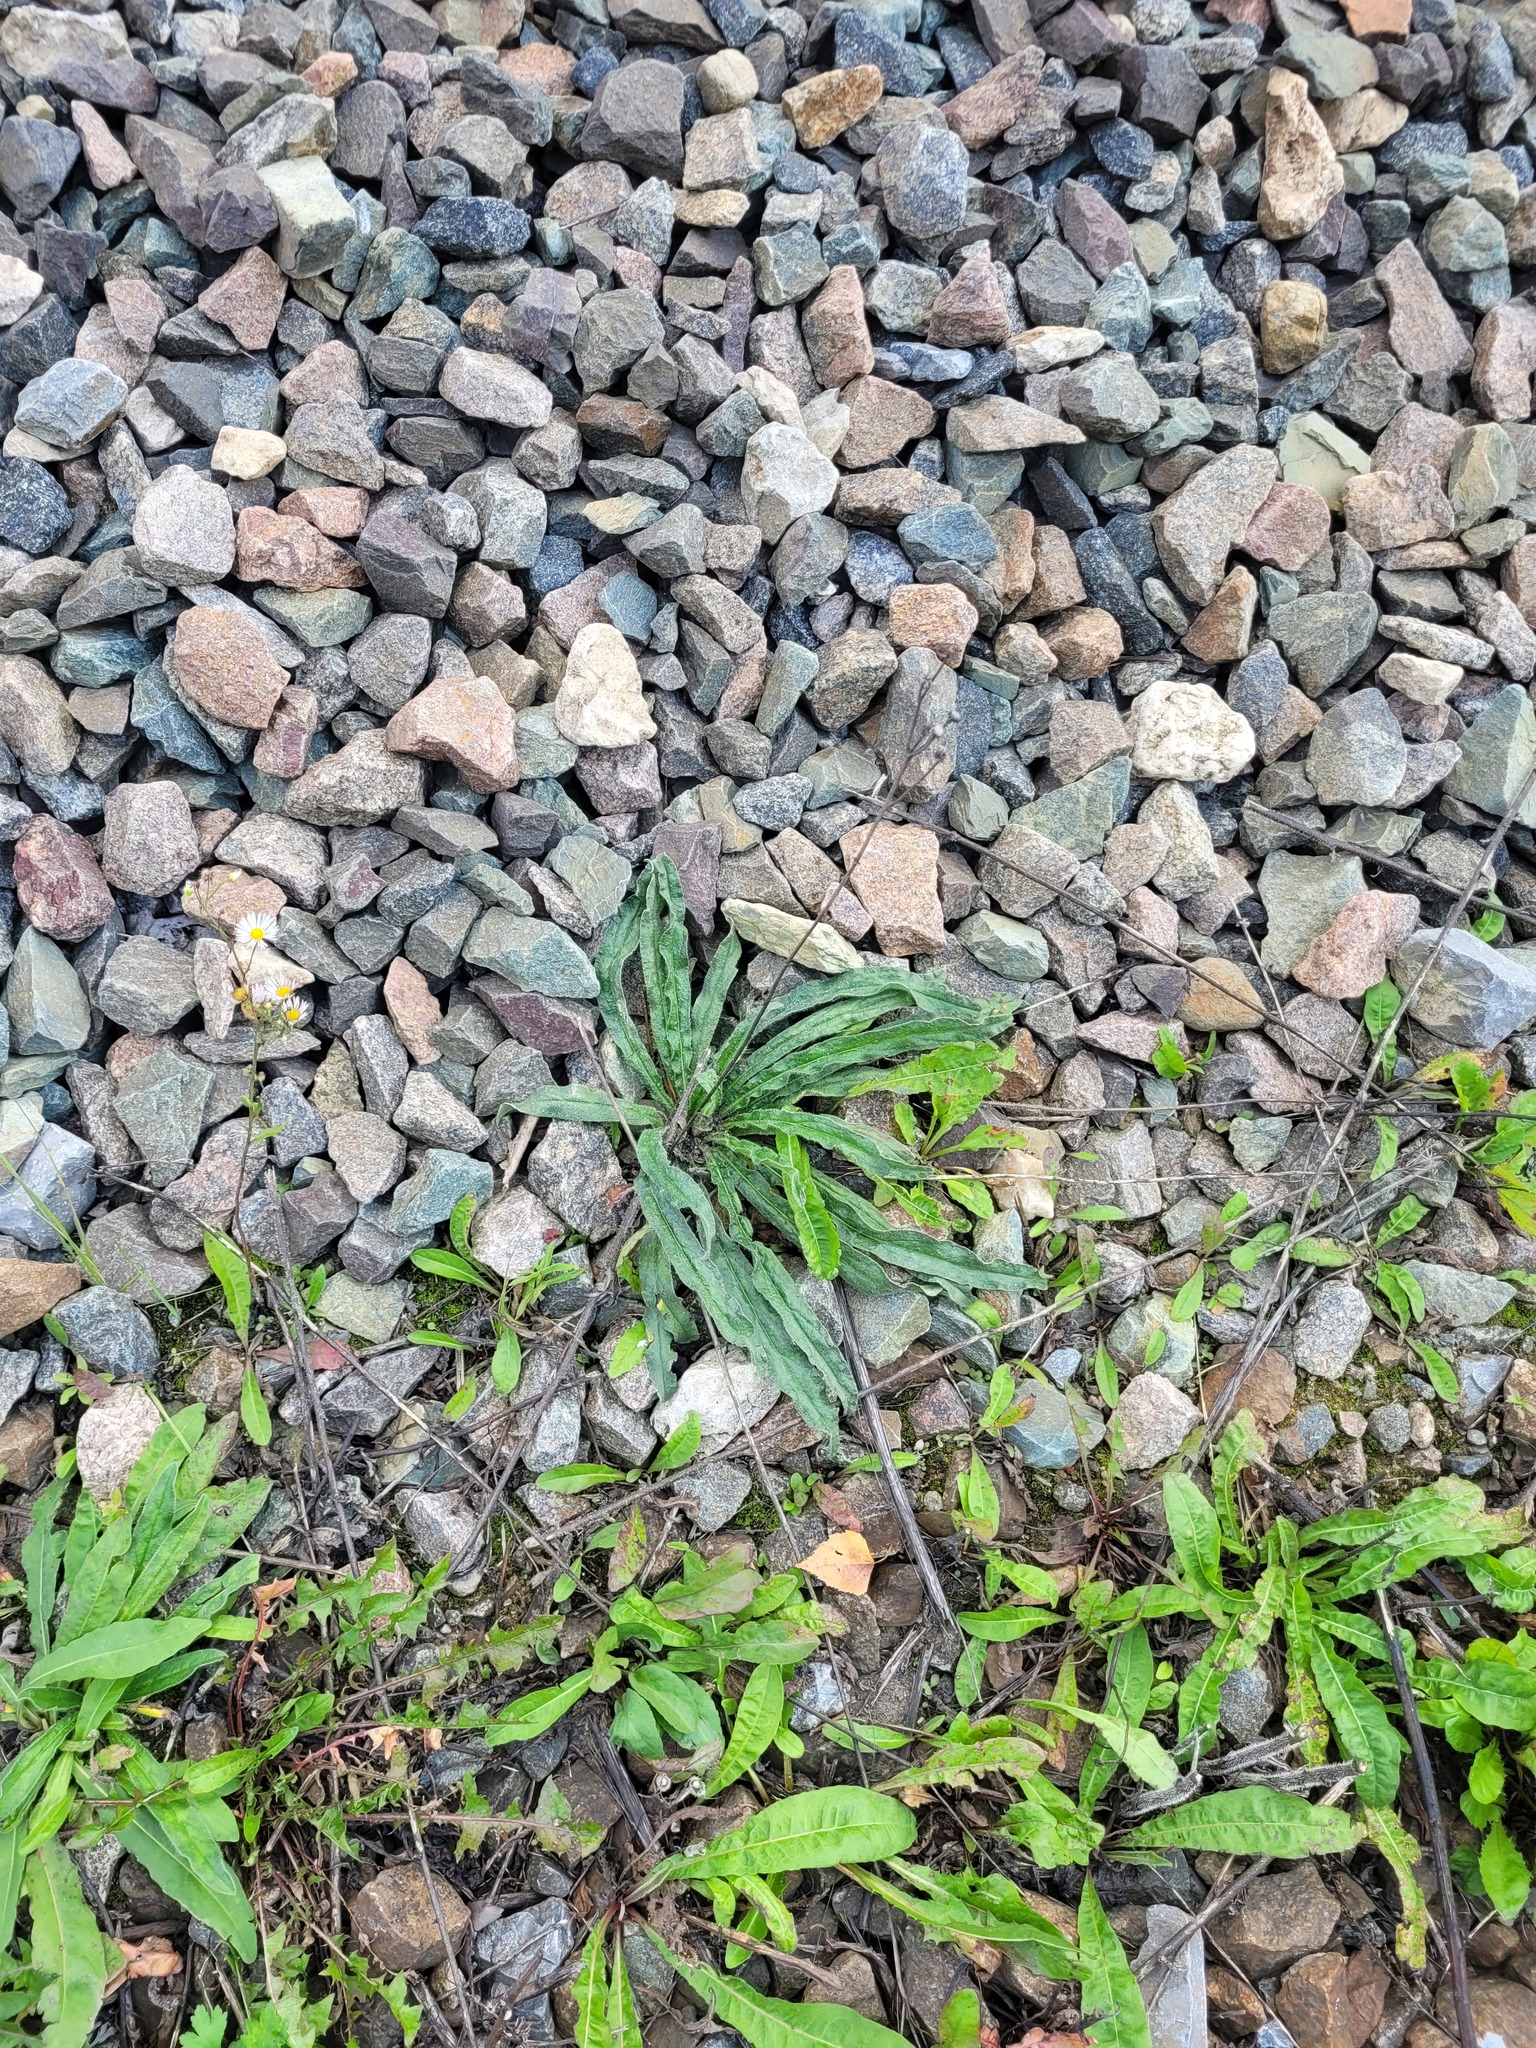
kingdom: Plantae
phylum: Tracheophyta
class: Magnoliopsida
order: Boraginales
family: Boraginaceae
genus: Echium
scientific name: Echium vulgare
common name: Common viper's bugloss
